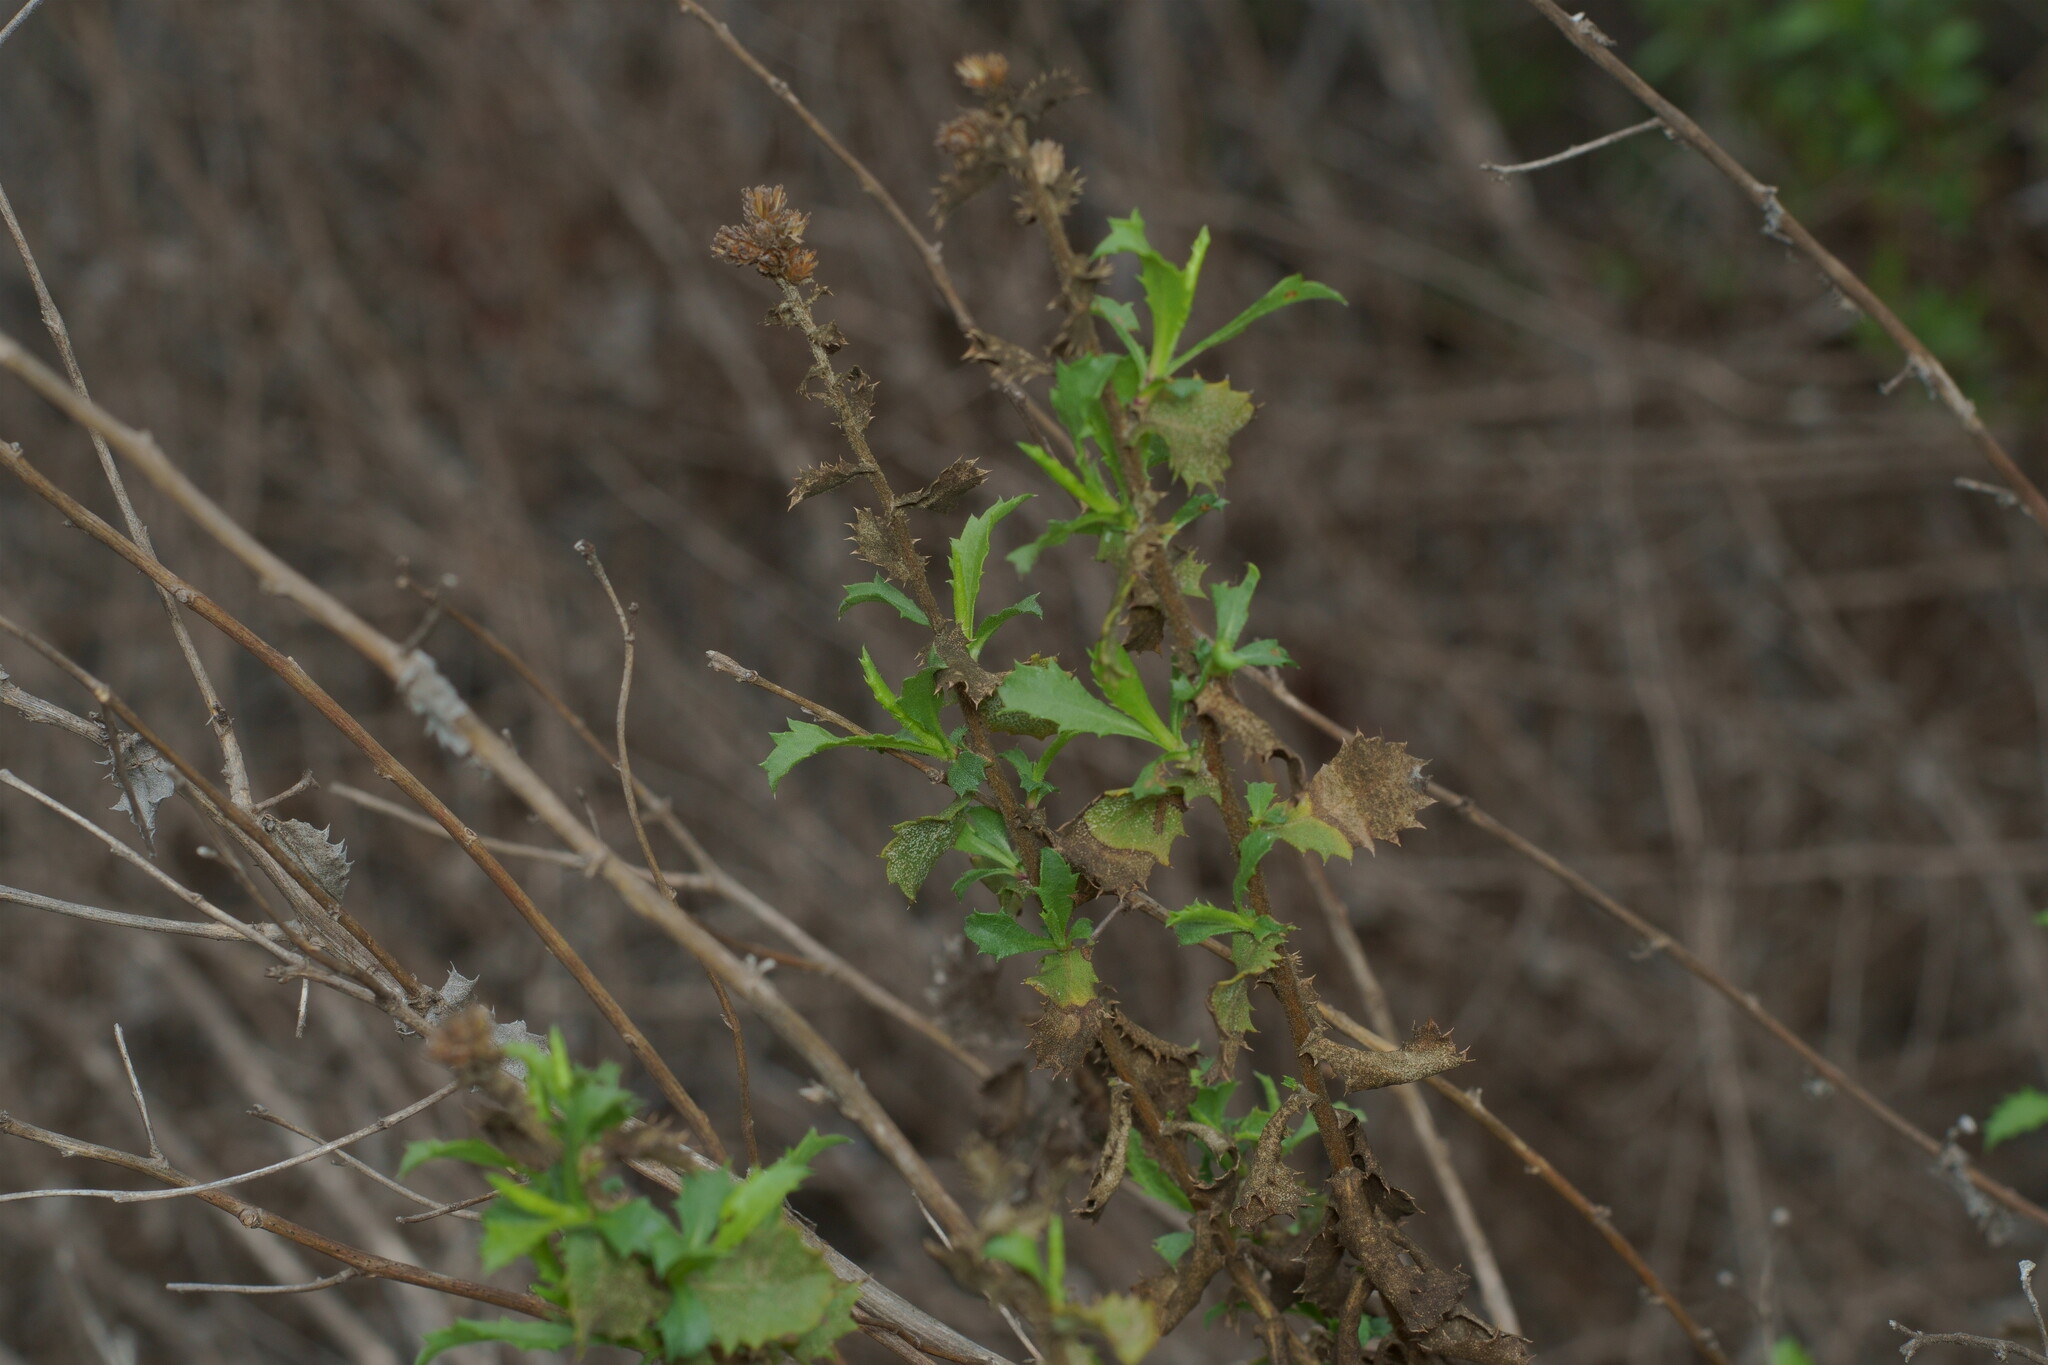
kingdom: Plantae
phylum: Tracheophyta
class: Magnoliopsida
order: Asterales
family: Asteraceae
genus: Hazardia
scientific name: Hazardia squarrosa
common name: Saw-tooth goldenbush
